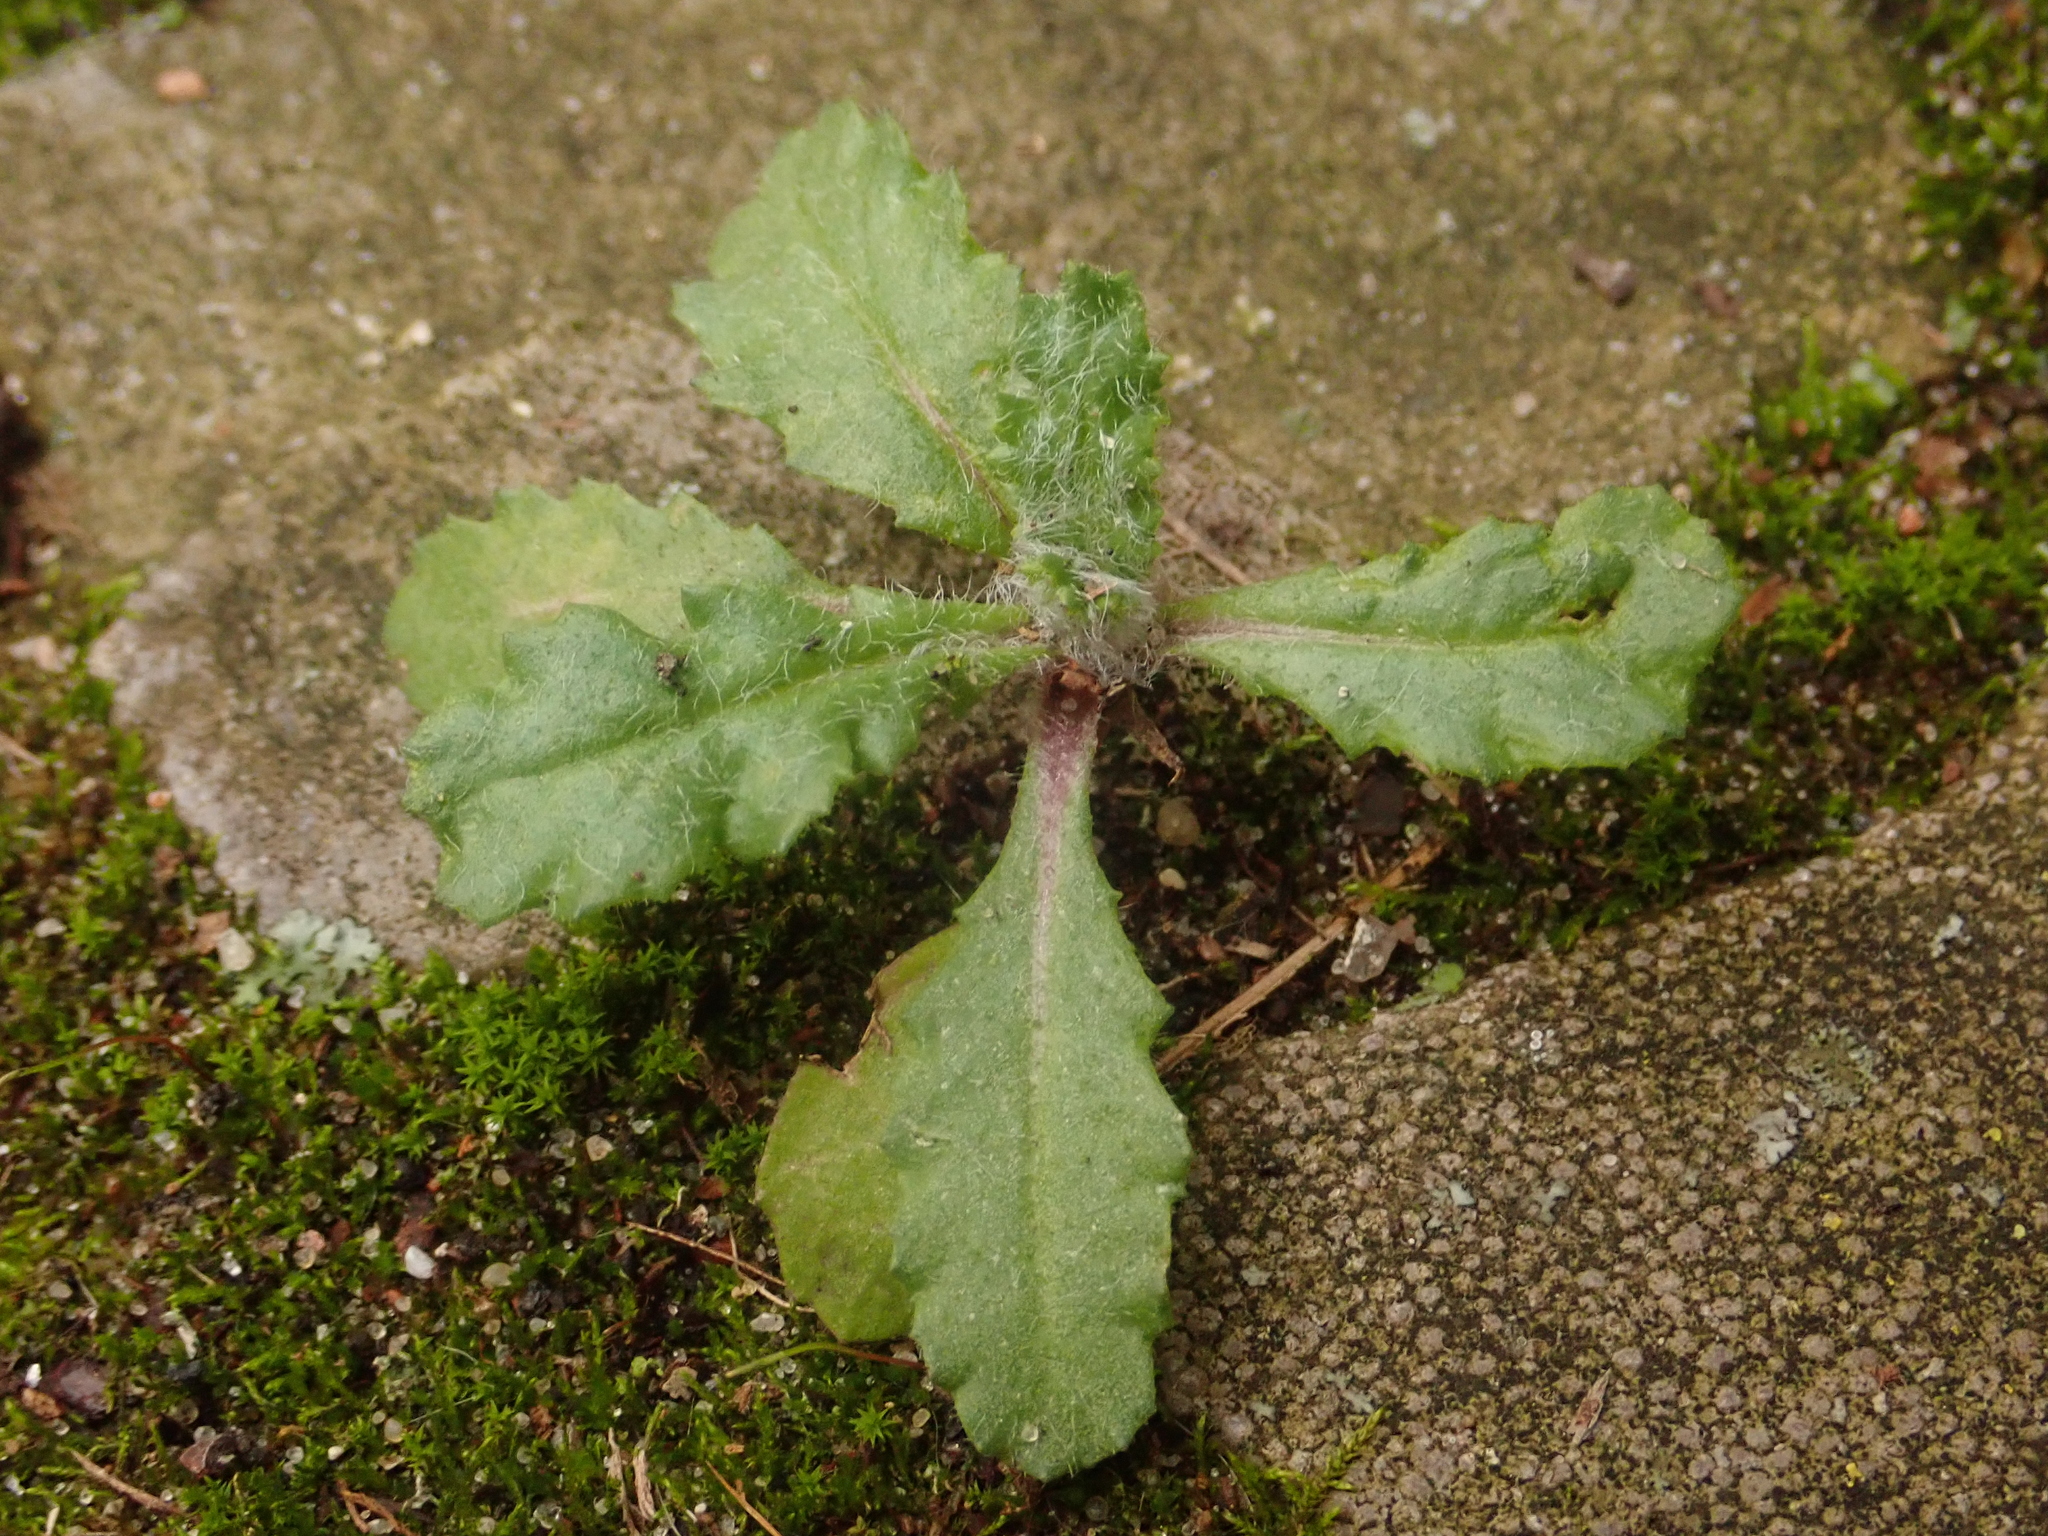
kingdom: Plantae
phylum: Tracheophyta
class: Magnoliopsida
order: Asterales
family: Asteraceae
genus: Senecio
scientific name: Senecio vulgaris
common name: Old-man-in-the-spring
